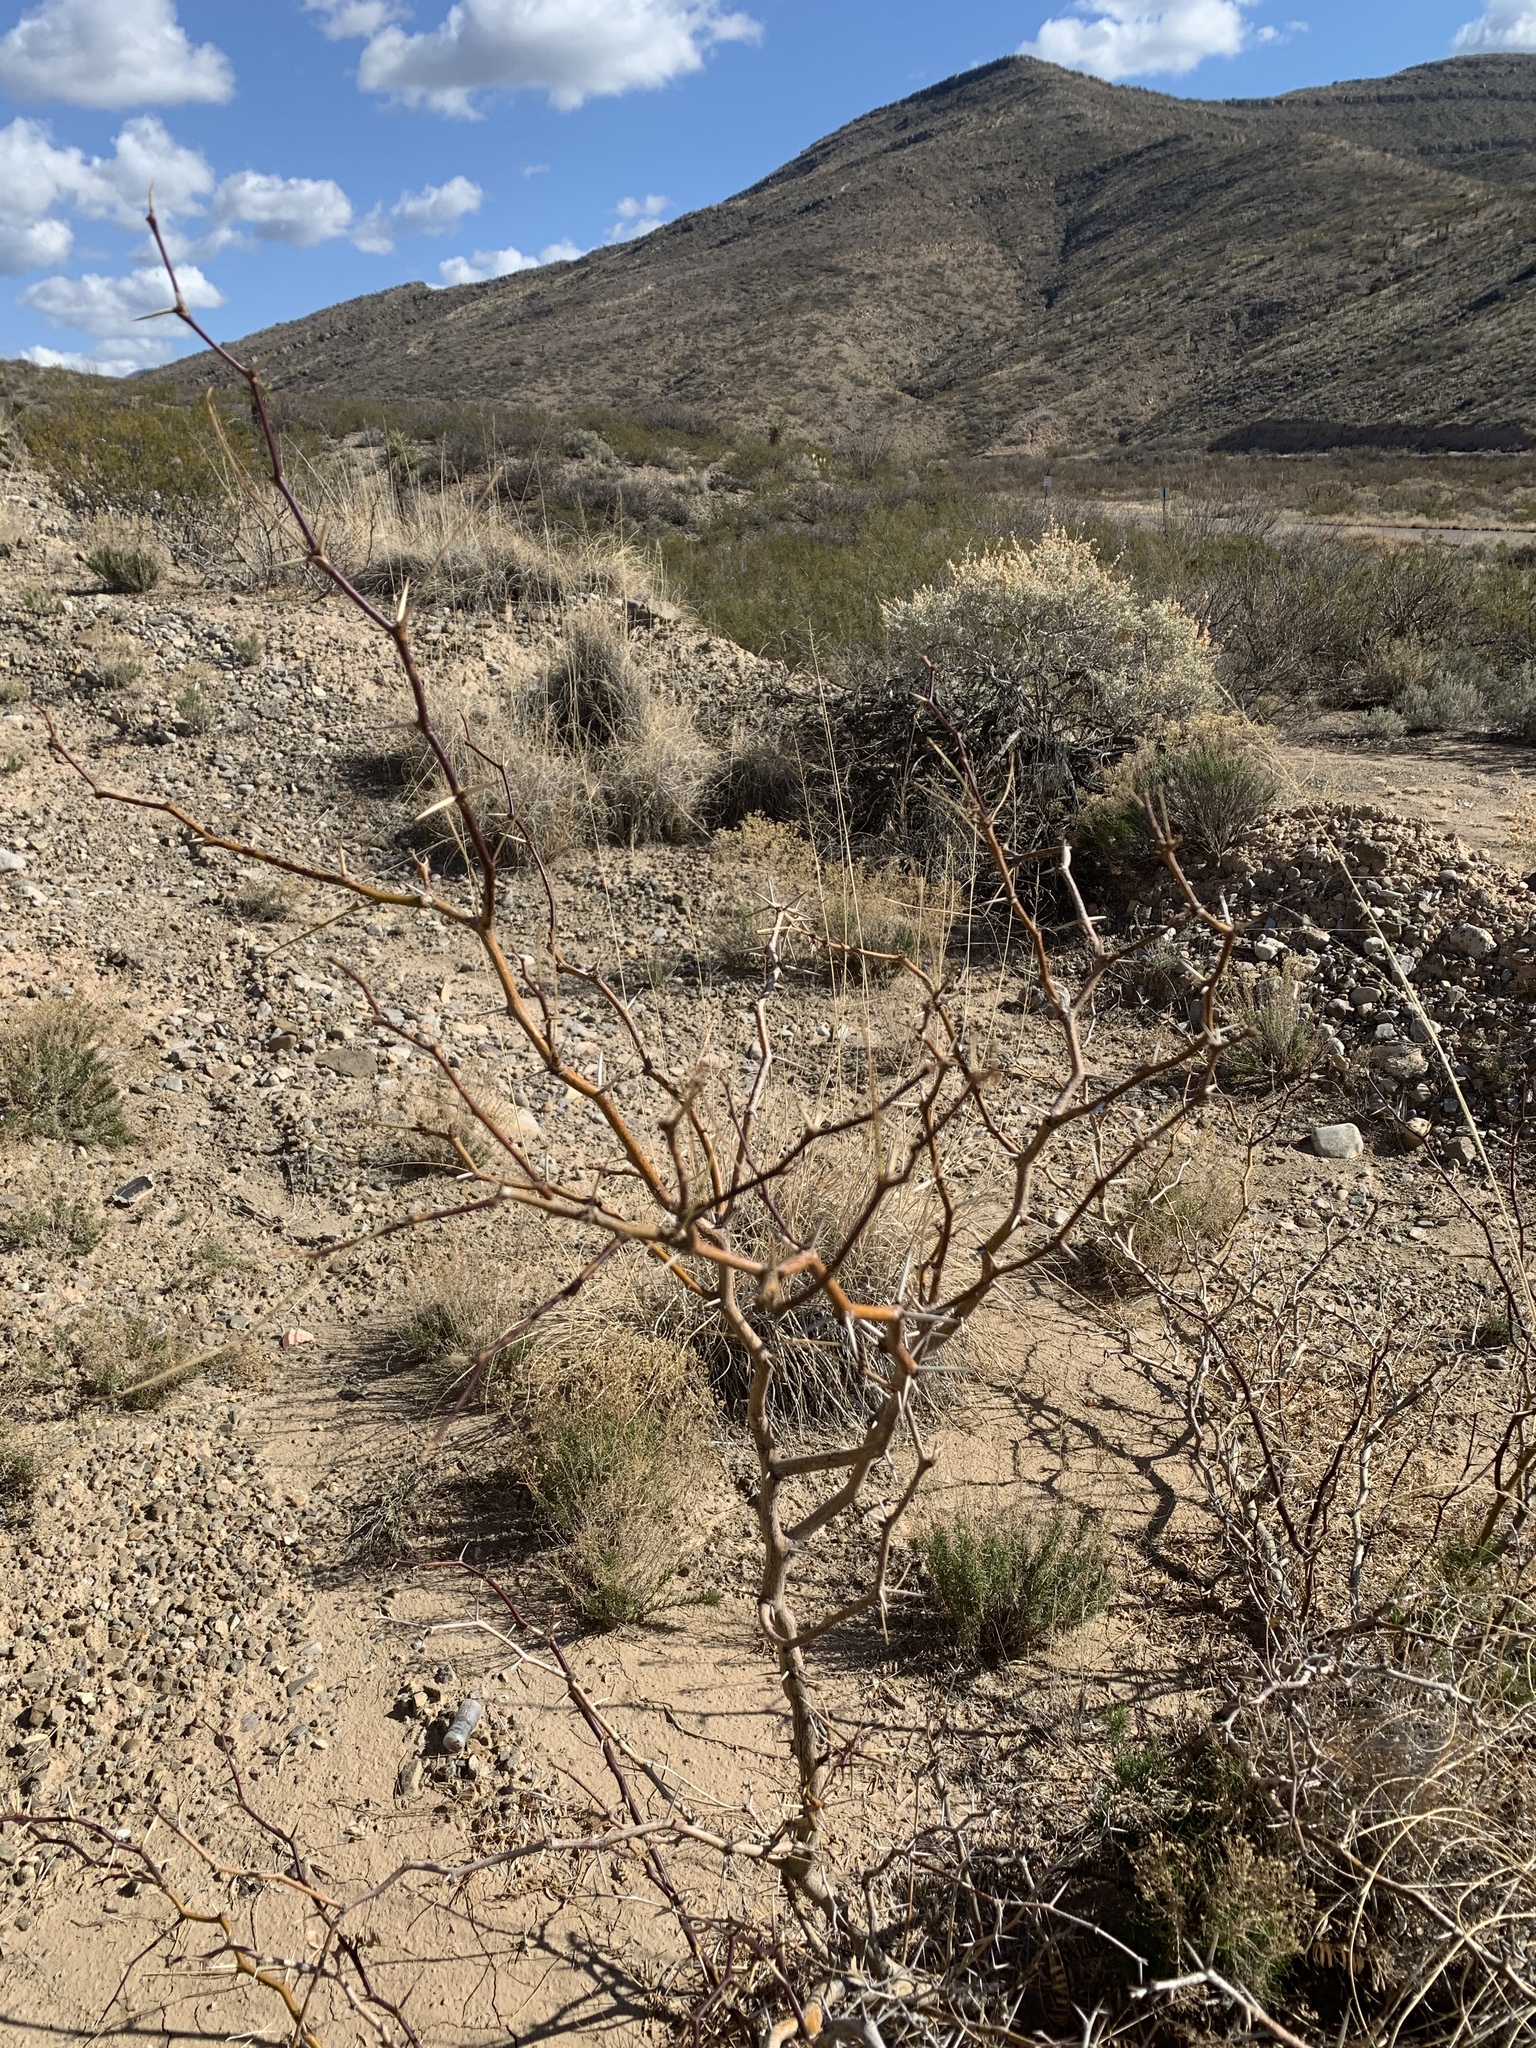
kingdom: Plantae
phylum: Tracheophyta
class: Magnoliopsida
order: Fabales
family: Fabaceae
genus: Prosopis
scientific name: Prosopis glandulosa
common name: Honey mesquite
